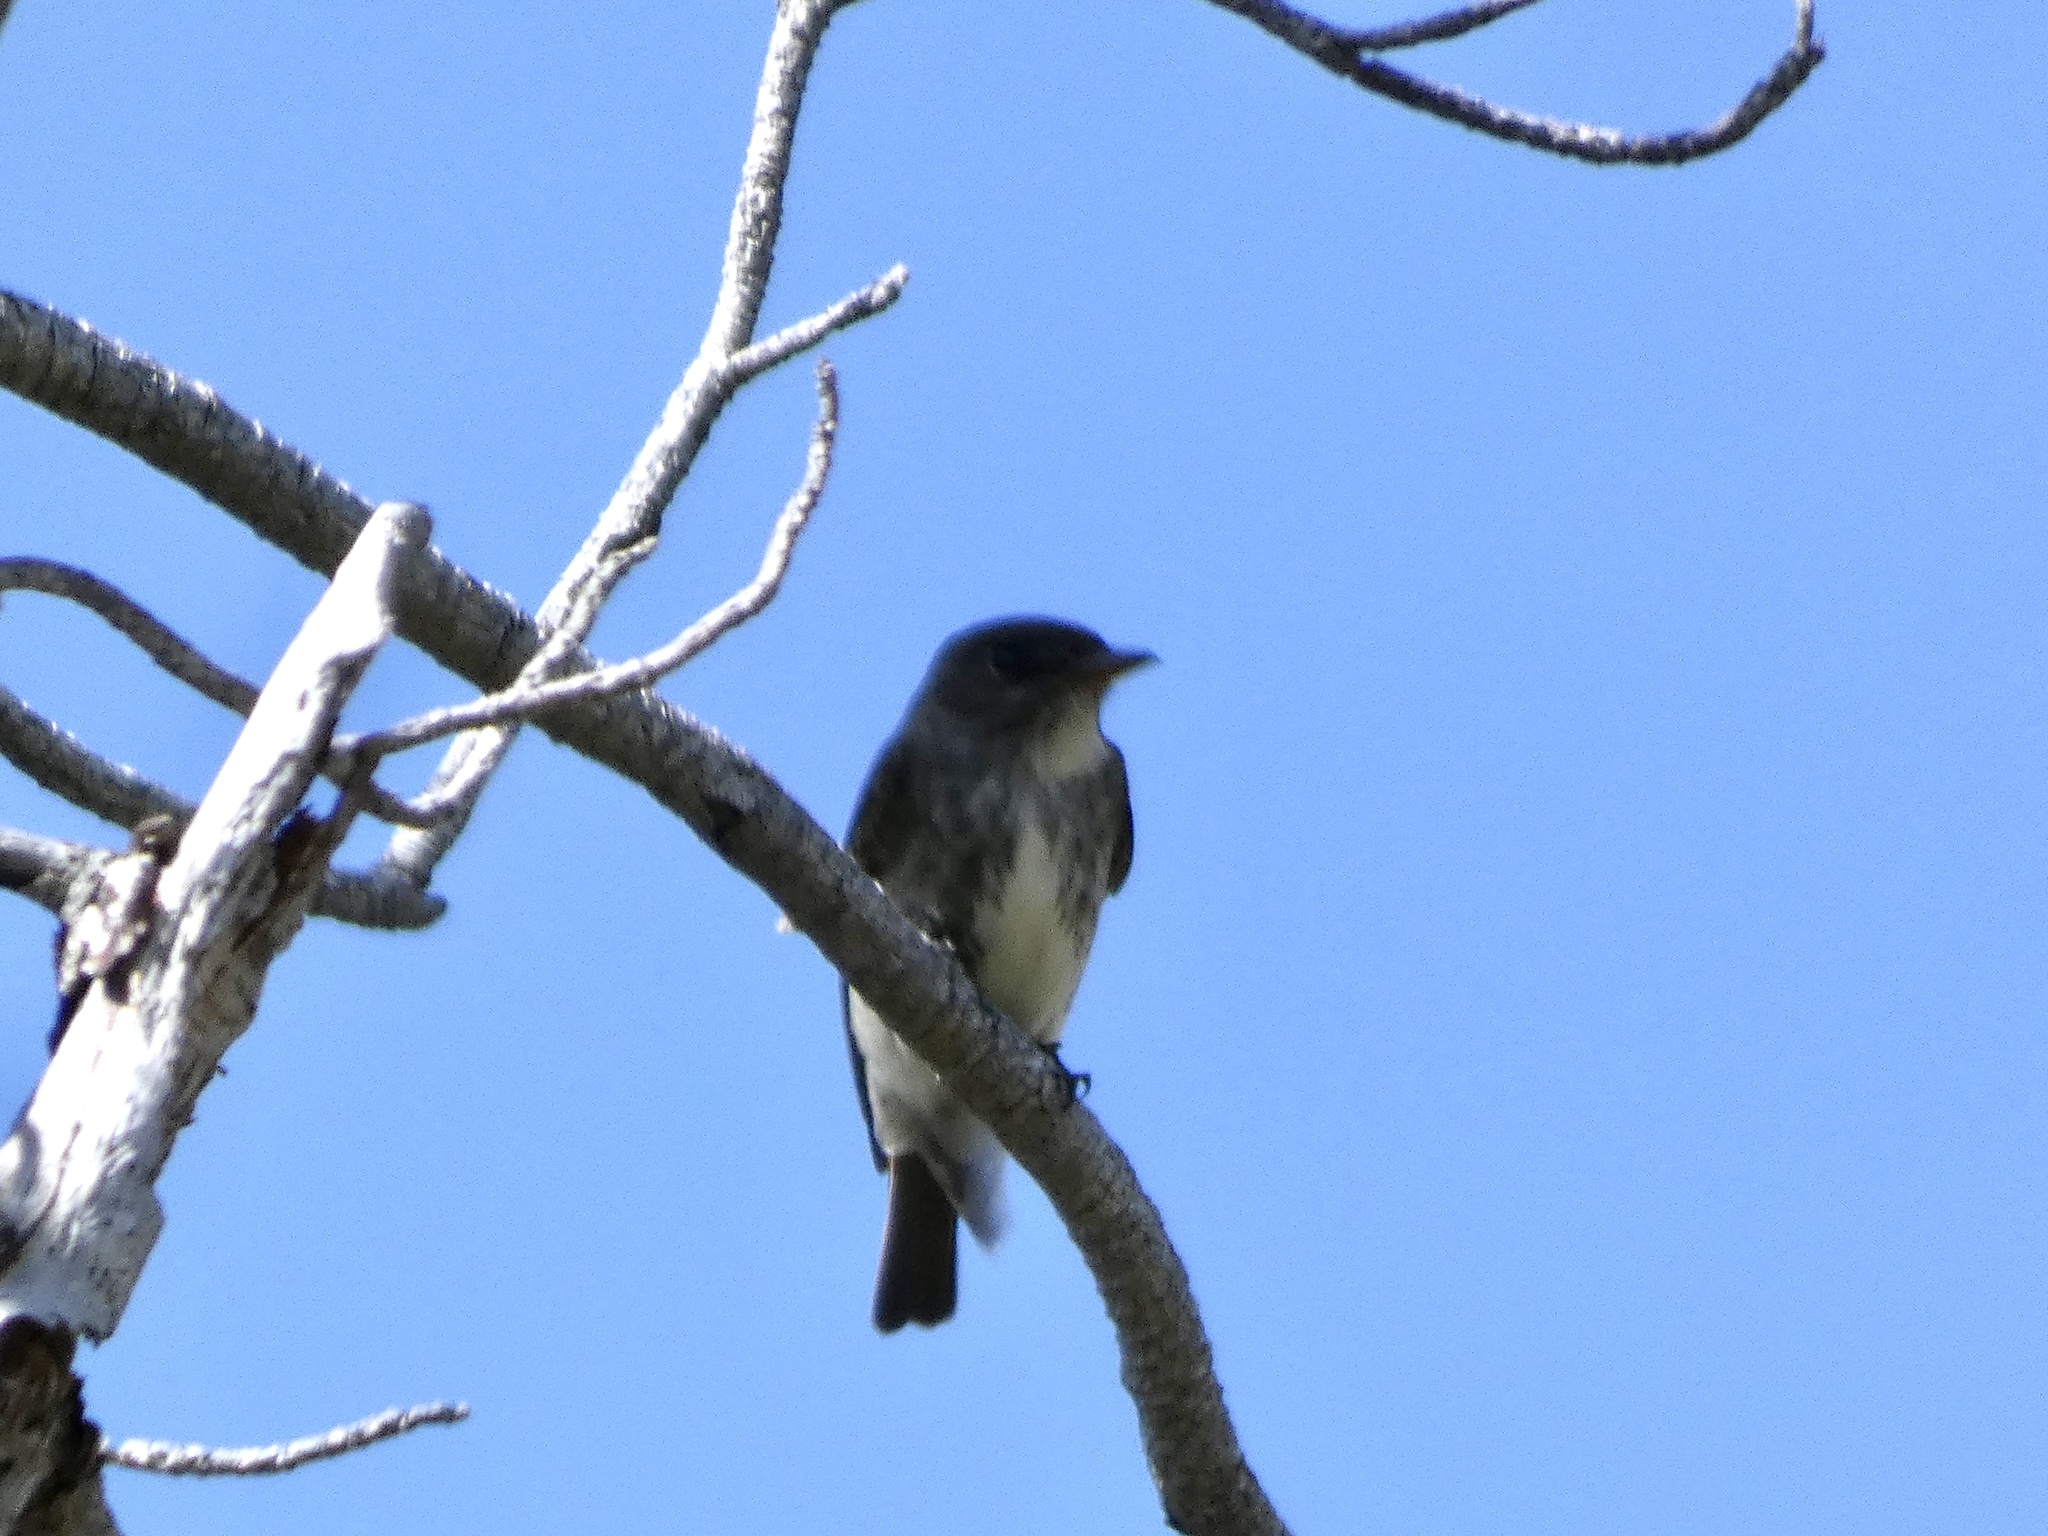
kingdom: Animalia
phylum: Chordata
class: Aves
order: Passeriformes
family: Tyrannidae
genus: Contopus
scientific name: Contopus cooperi
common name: Olive-sided flycatcher
